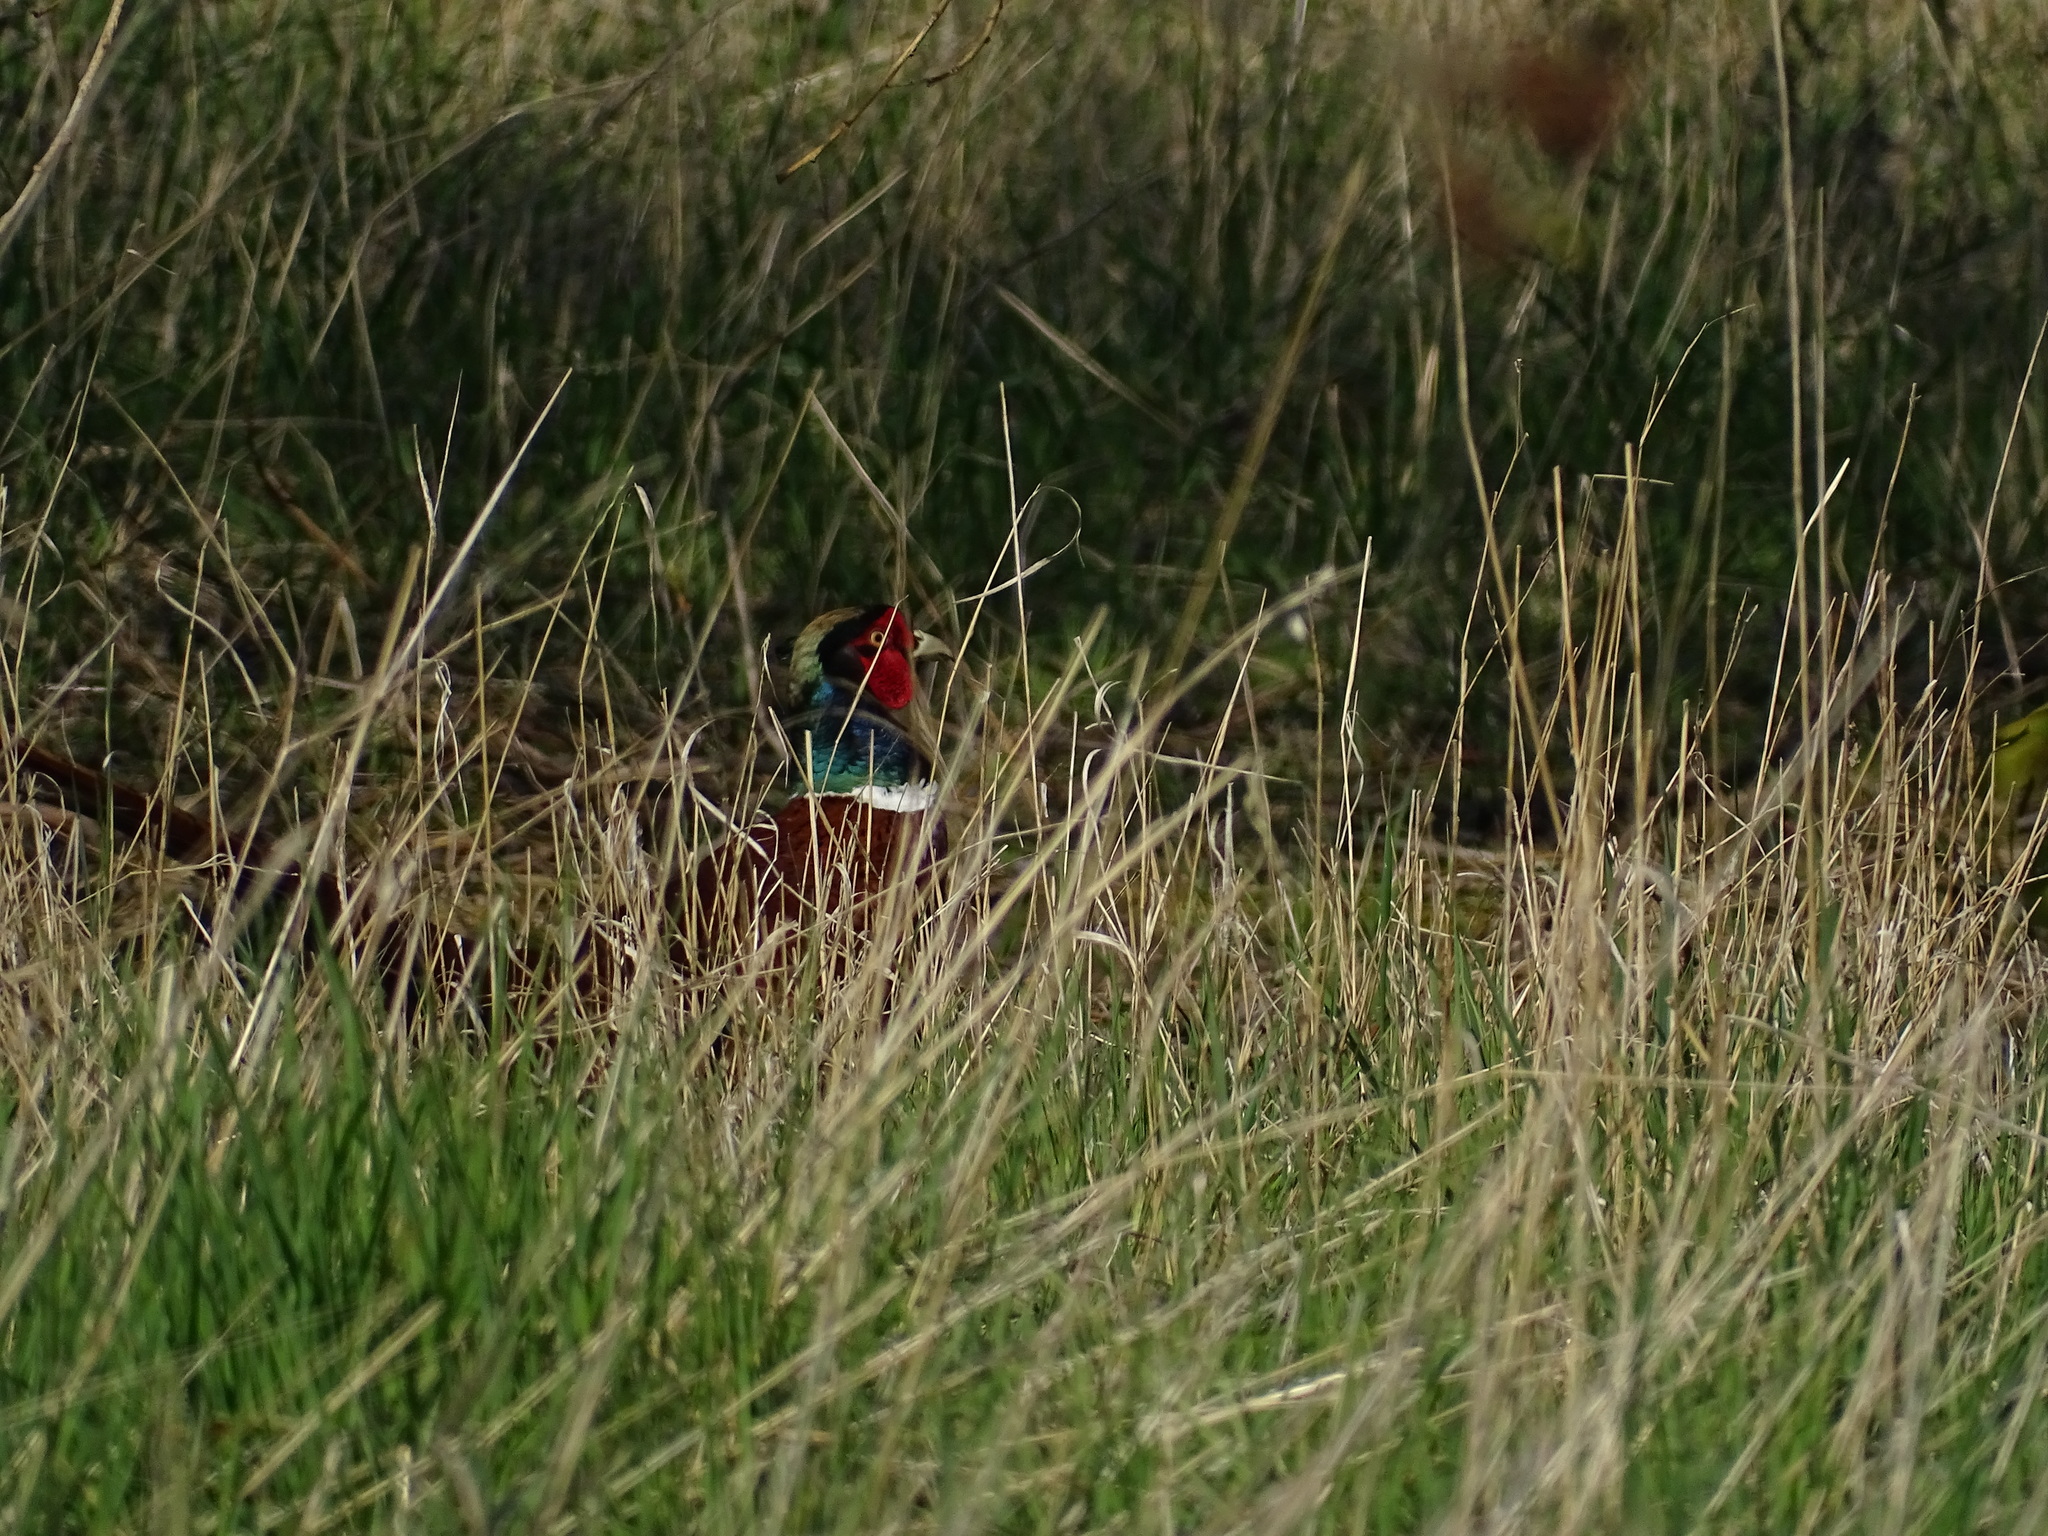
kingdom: Animalia
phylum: Chordata
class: Aves
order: Galliformes
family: Phasianidae
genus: Phasianus
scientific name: Phasianus colchicus
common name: Common pheasant
